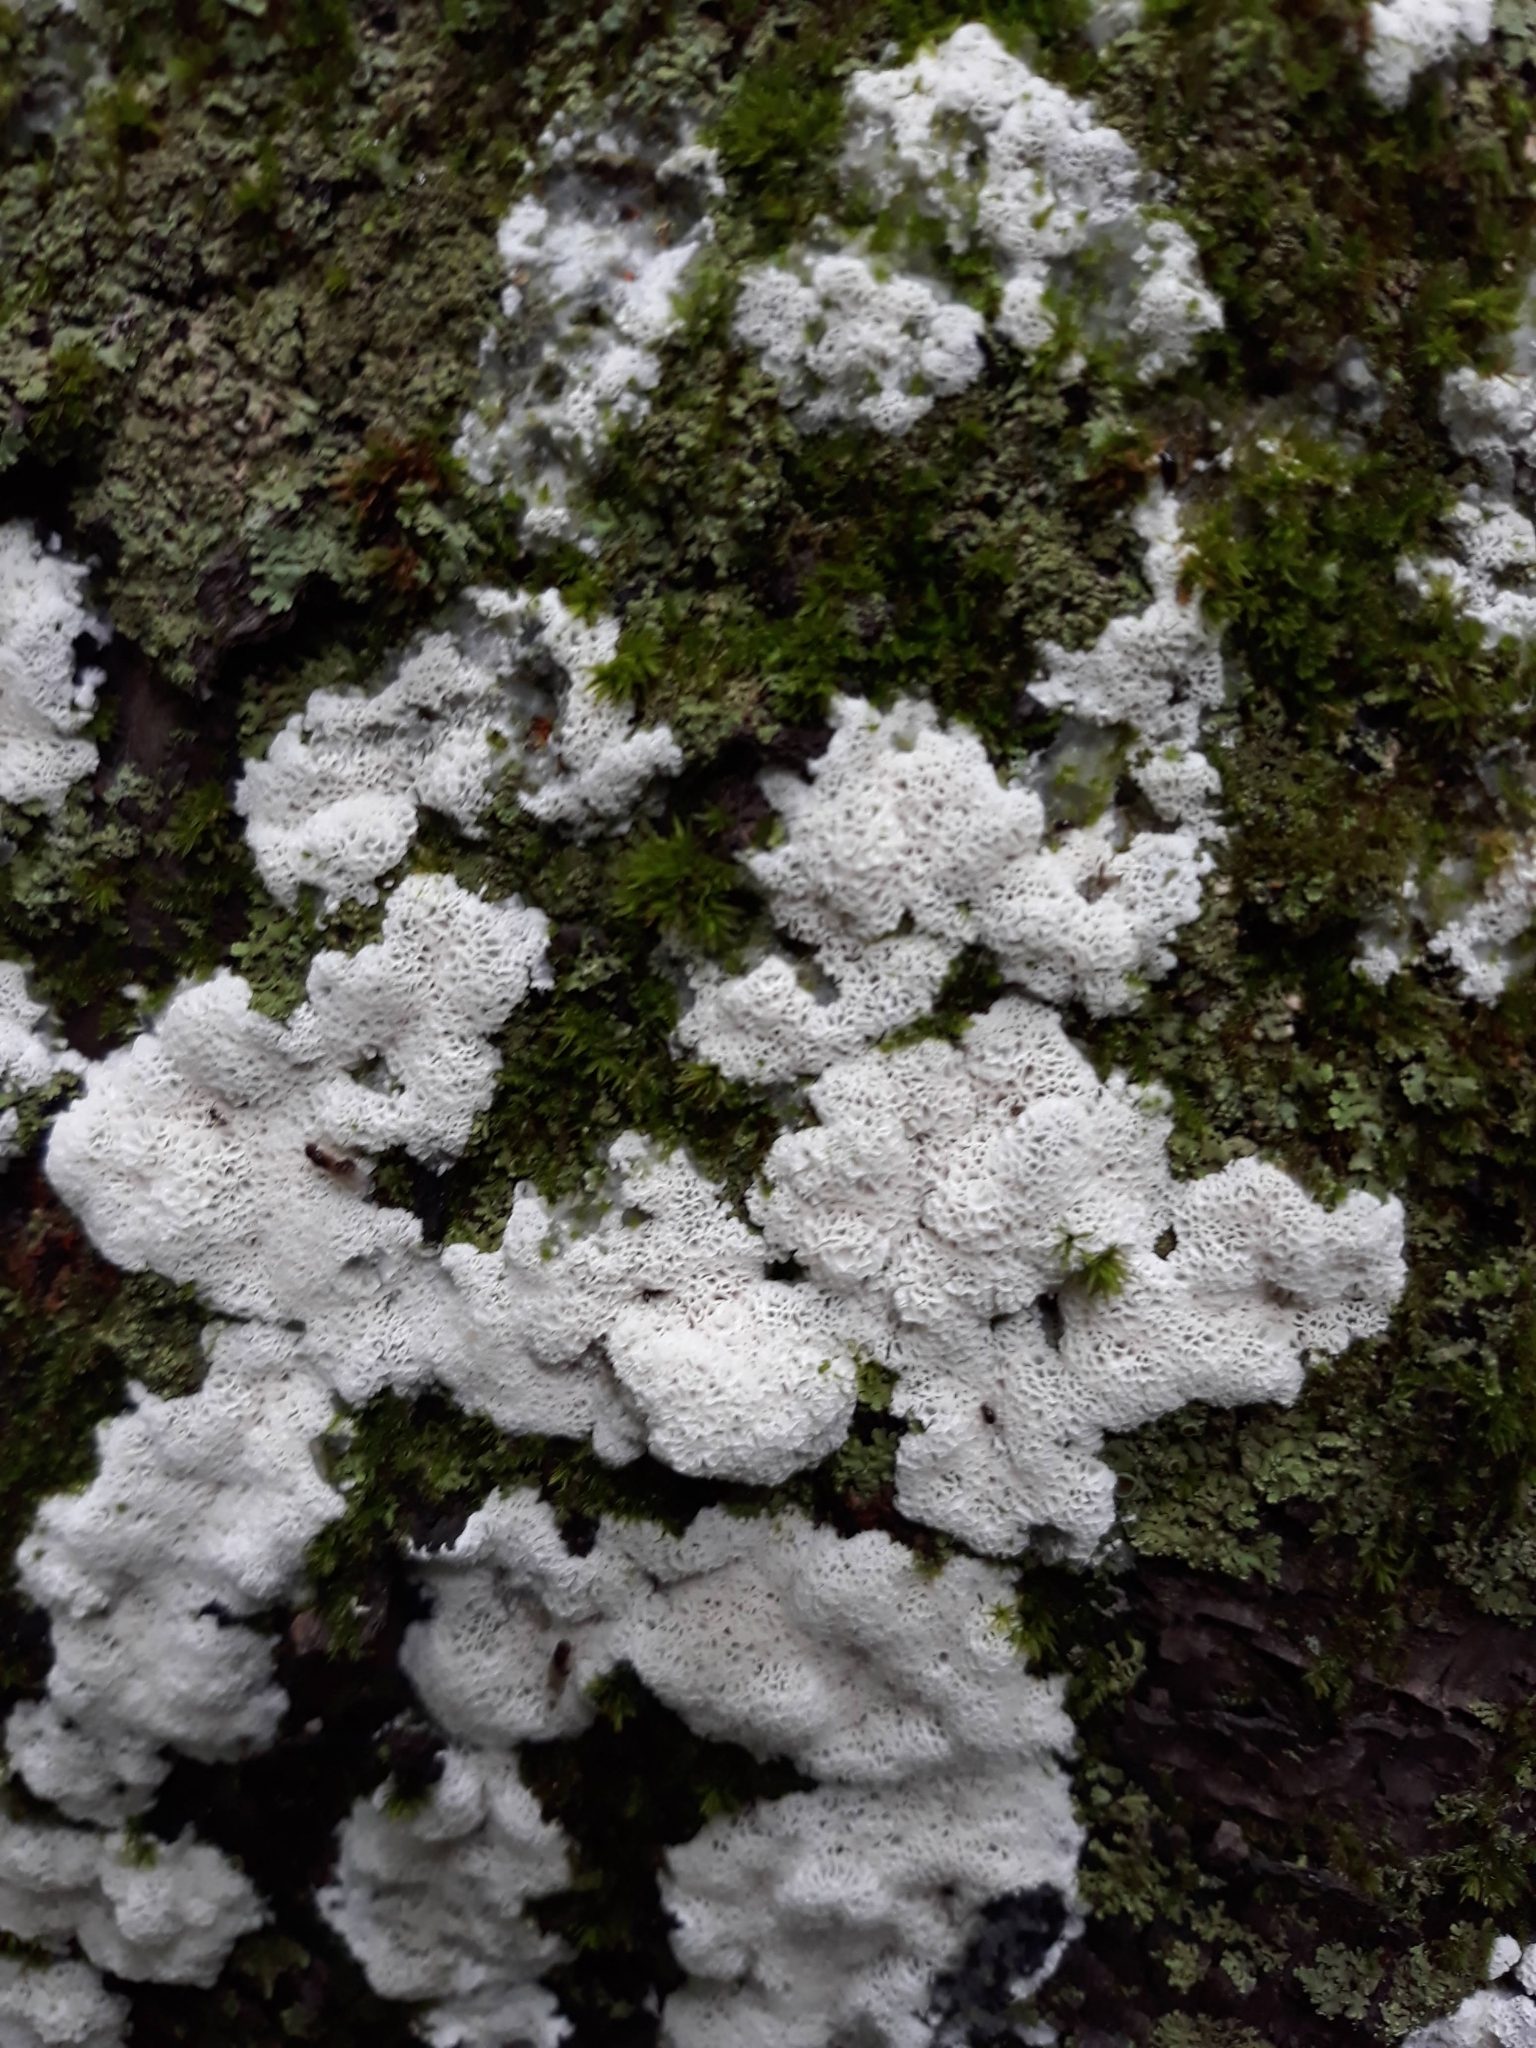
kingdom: Protozoa
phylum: Mycetozoa
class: Protosteliomycetes
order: Ceratiomyxales
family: Ceratiomyxaceae
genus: Ceratiomyxa
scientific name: Ceratiomyxa fruticulosa
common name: Honeycomb coral slime mold
